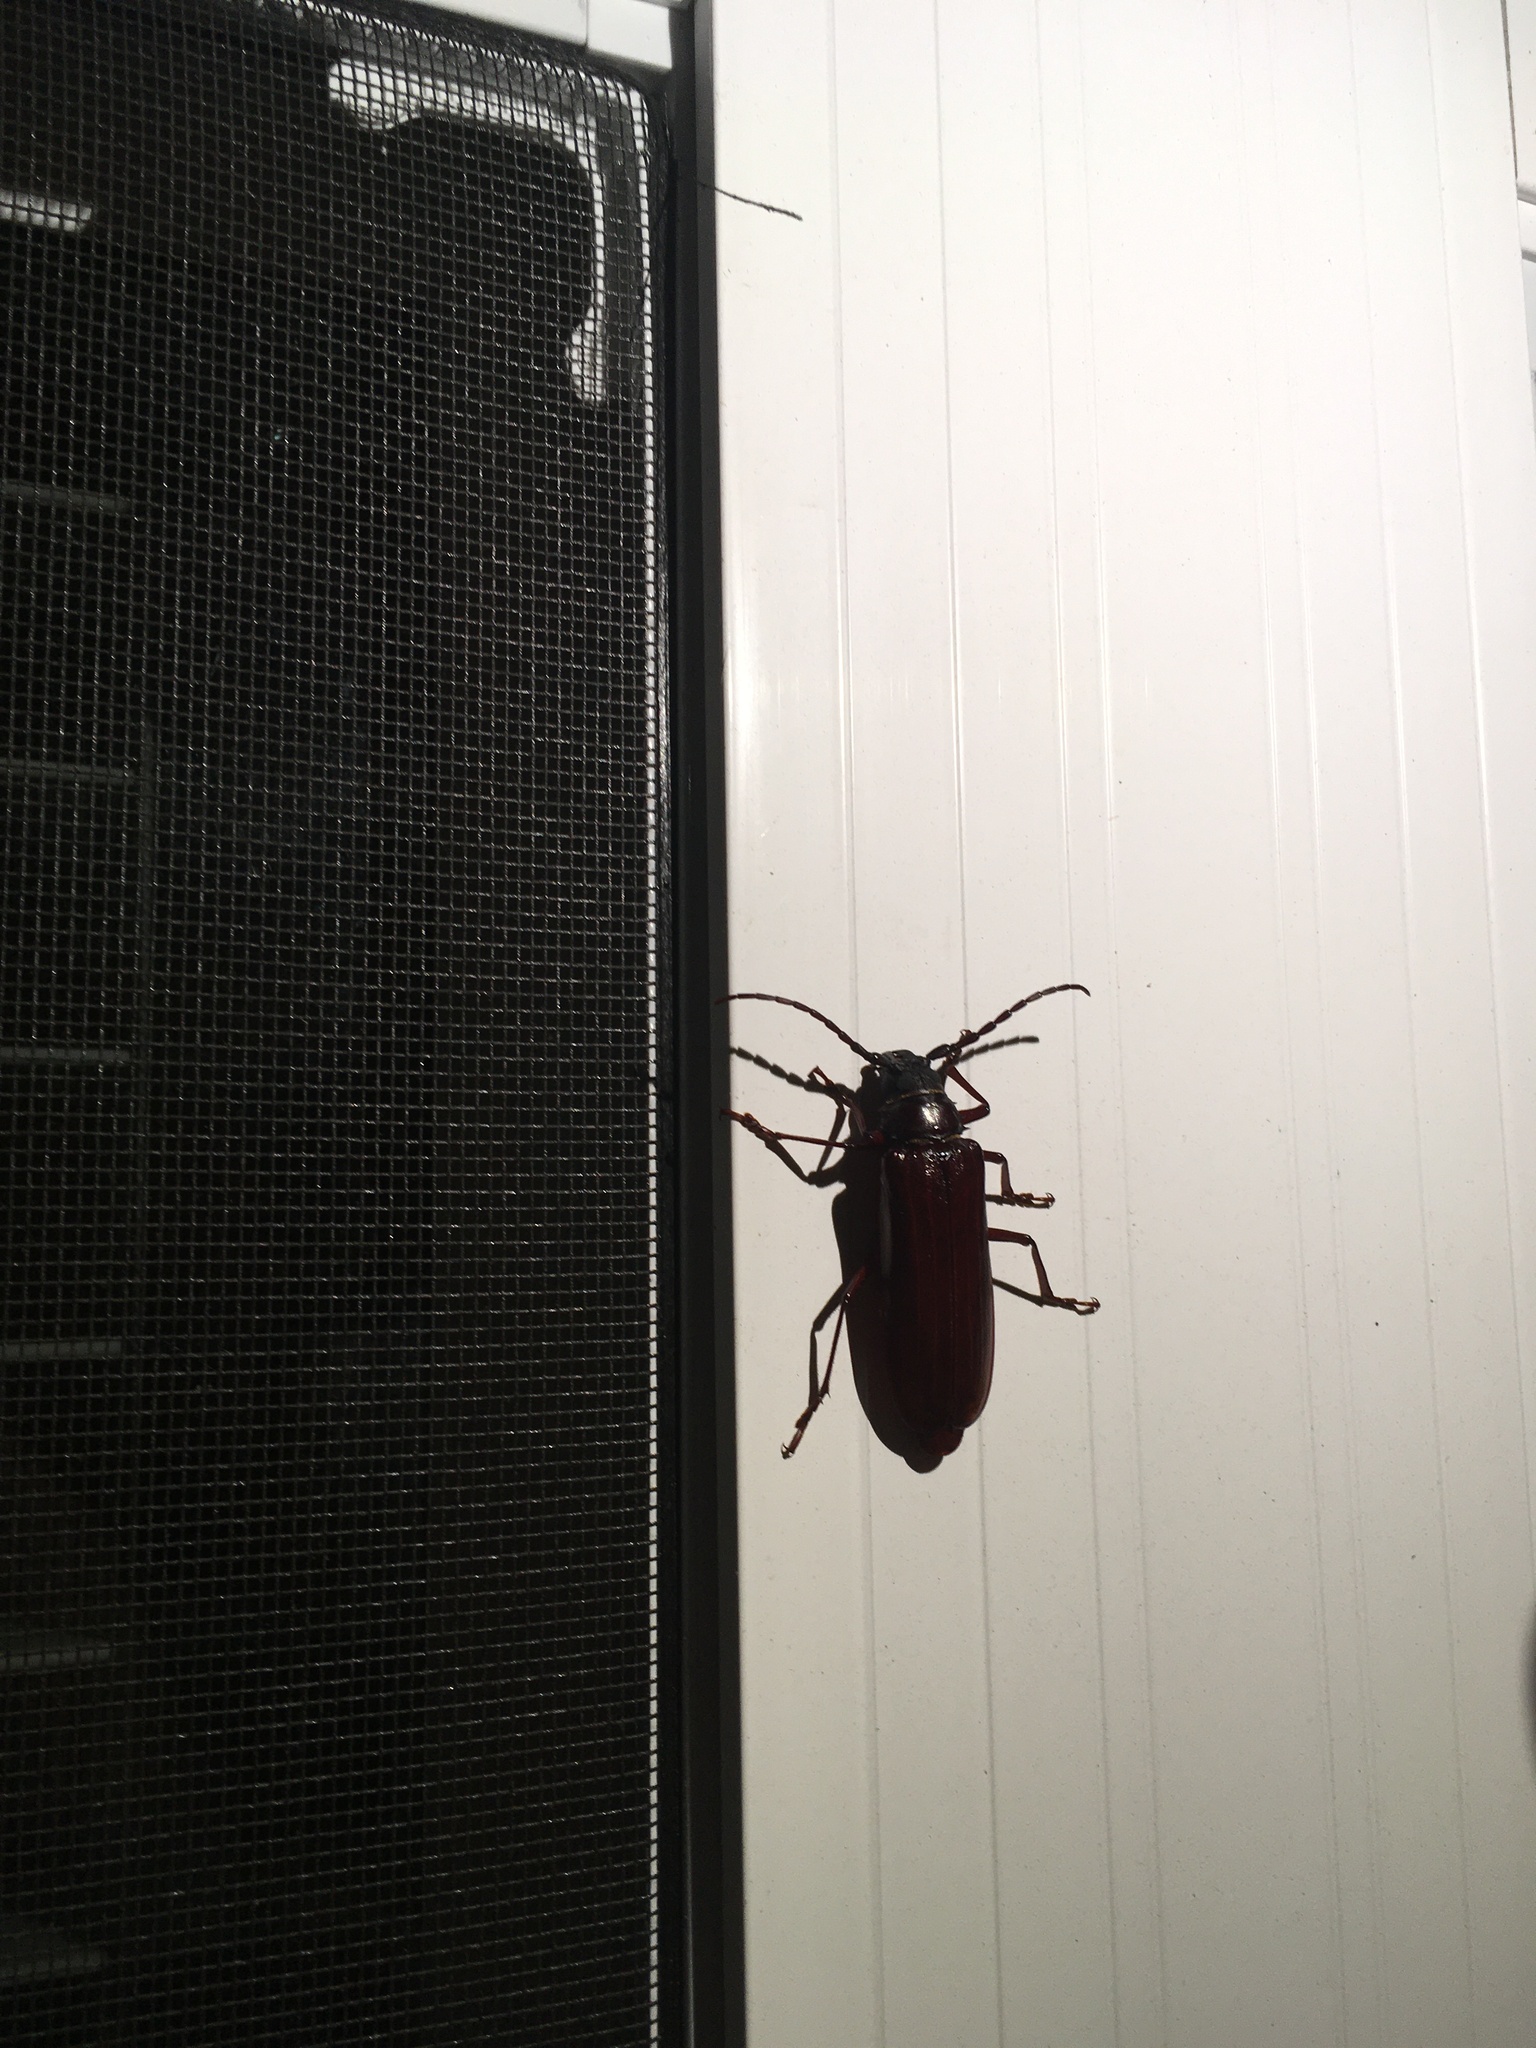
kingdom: Animalia
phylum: Arthropoda
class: Insecta
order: Coleoptera
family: Cerambycidae
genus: Orthosoma
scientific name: Orthosoma brunneum
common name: Brown prionid beetle
